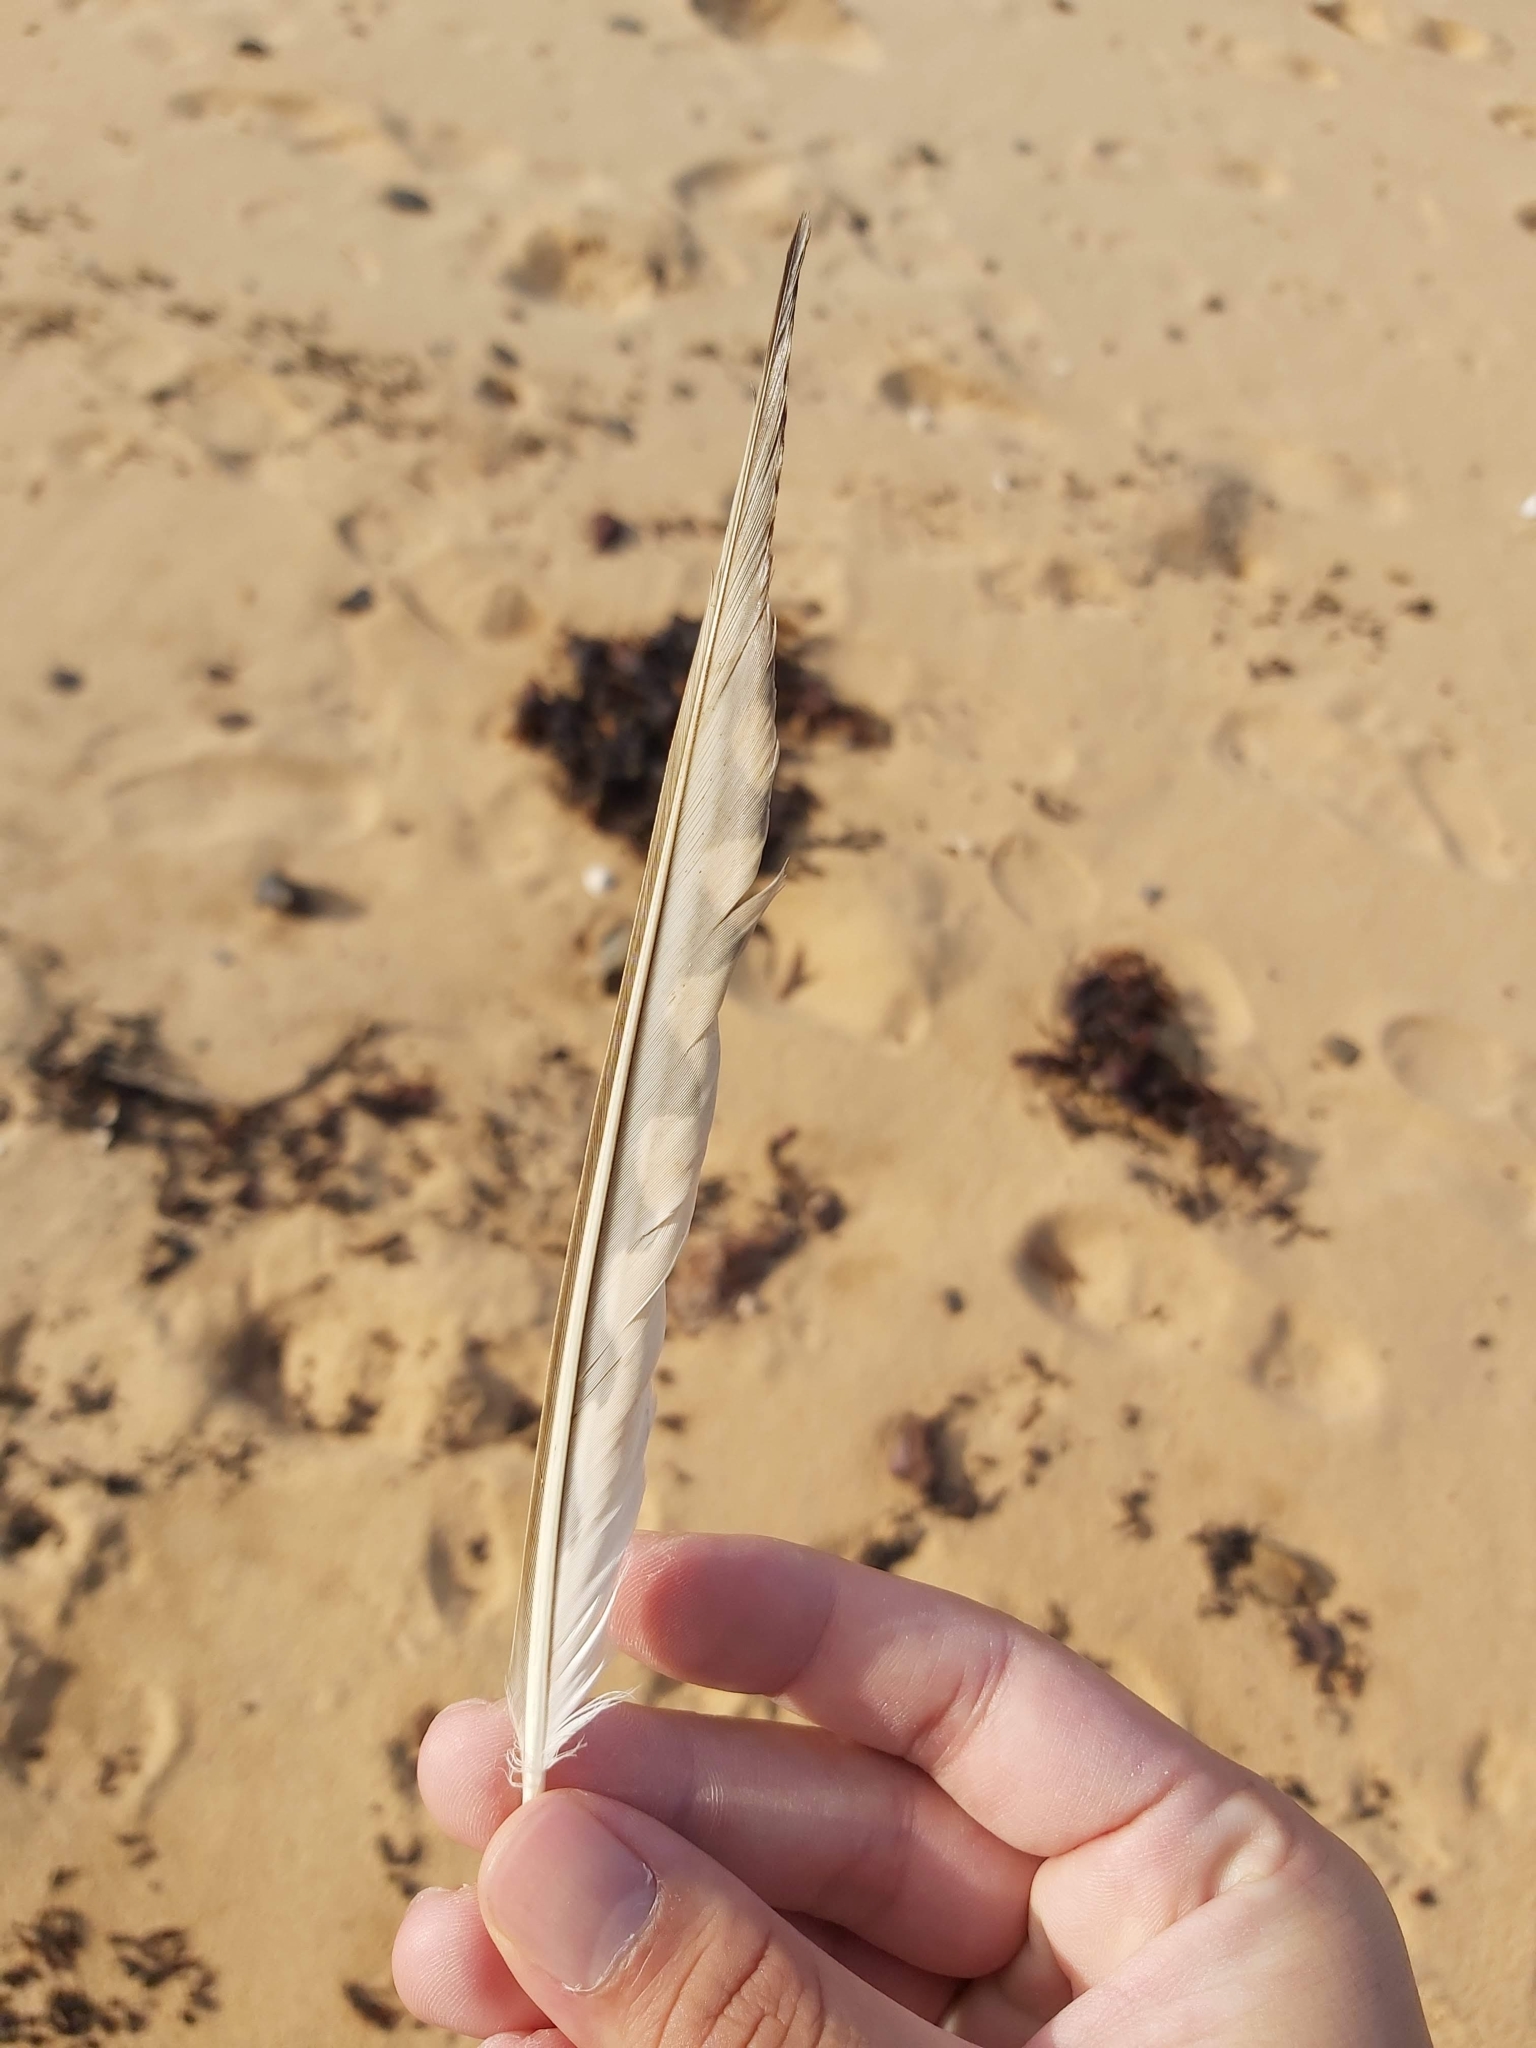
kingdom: Animalia
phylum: Chordata
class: Aves
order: Falconiformes
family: Falconidae
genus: Falco
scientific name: Falco cenchroides
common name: Nankeen kestrel
